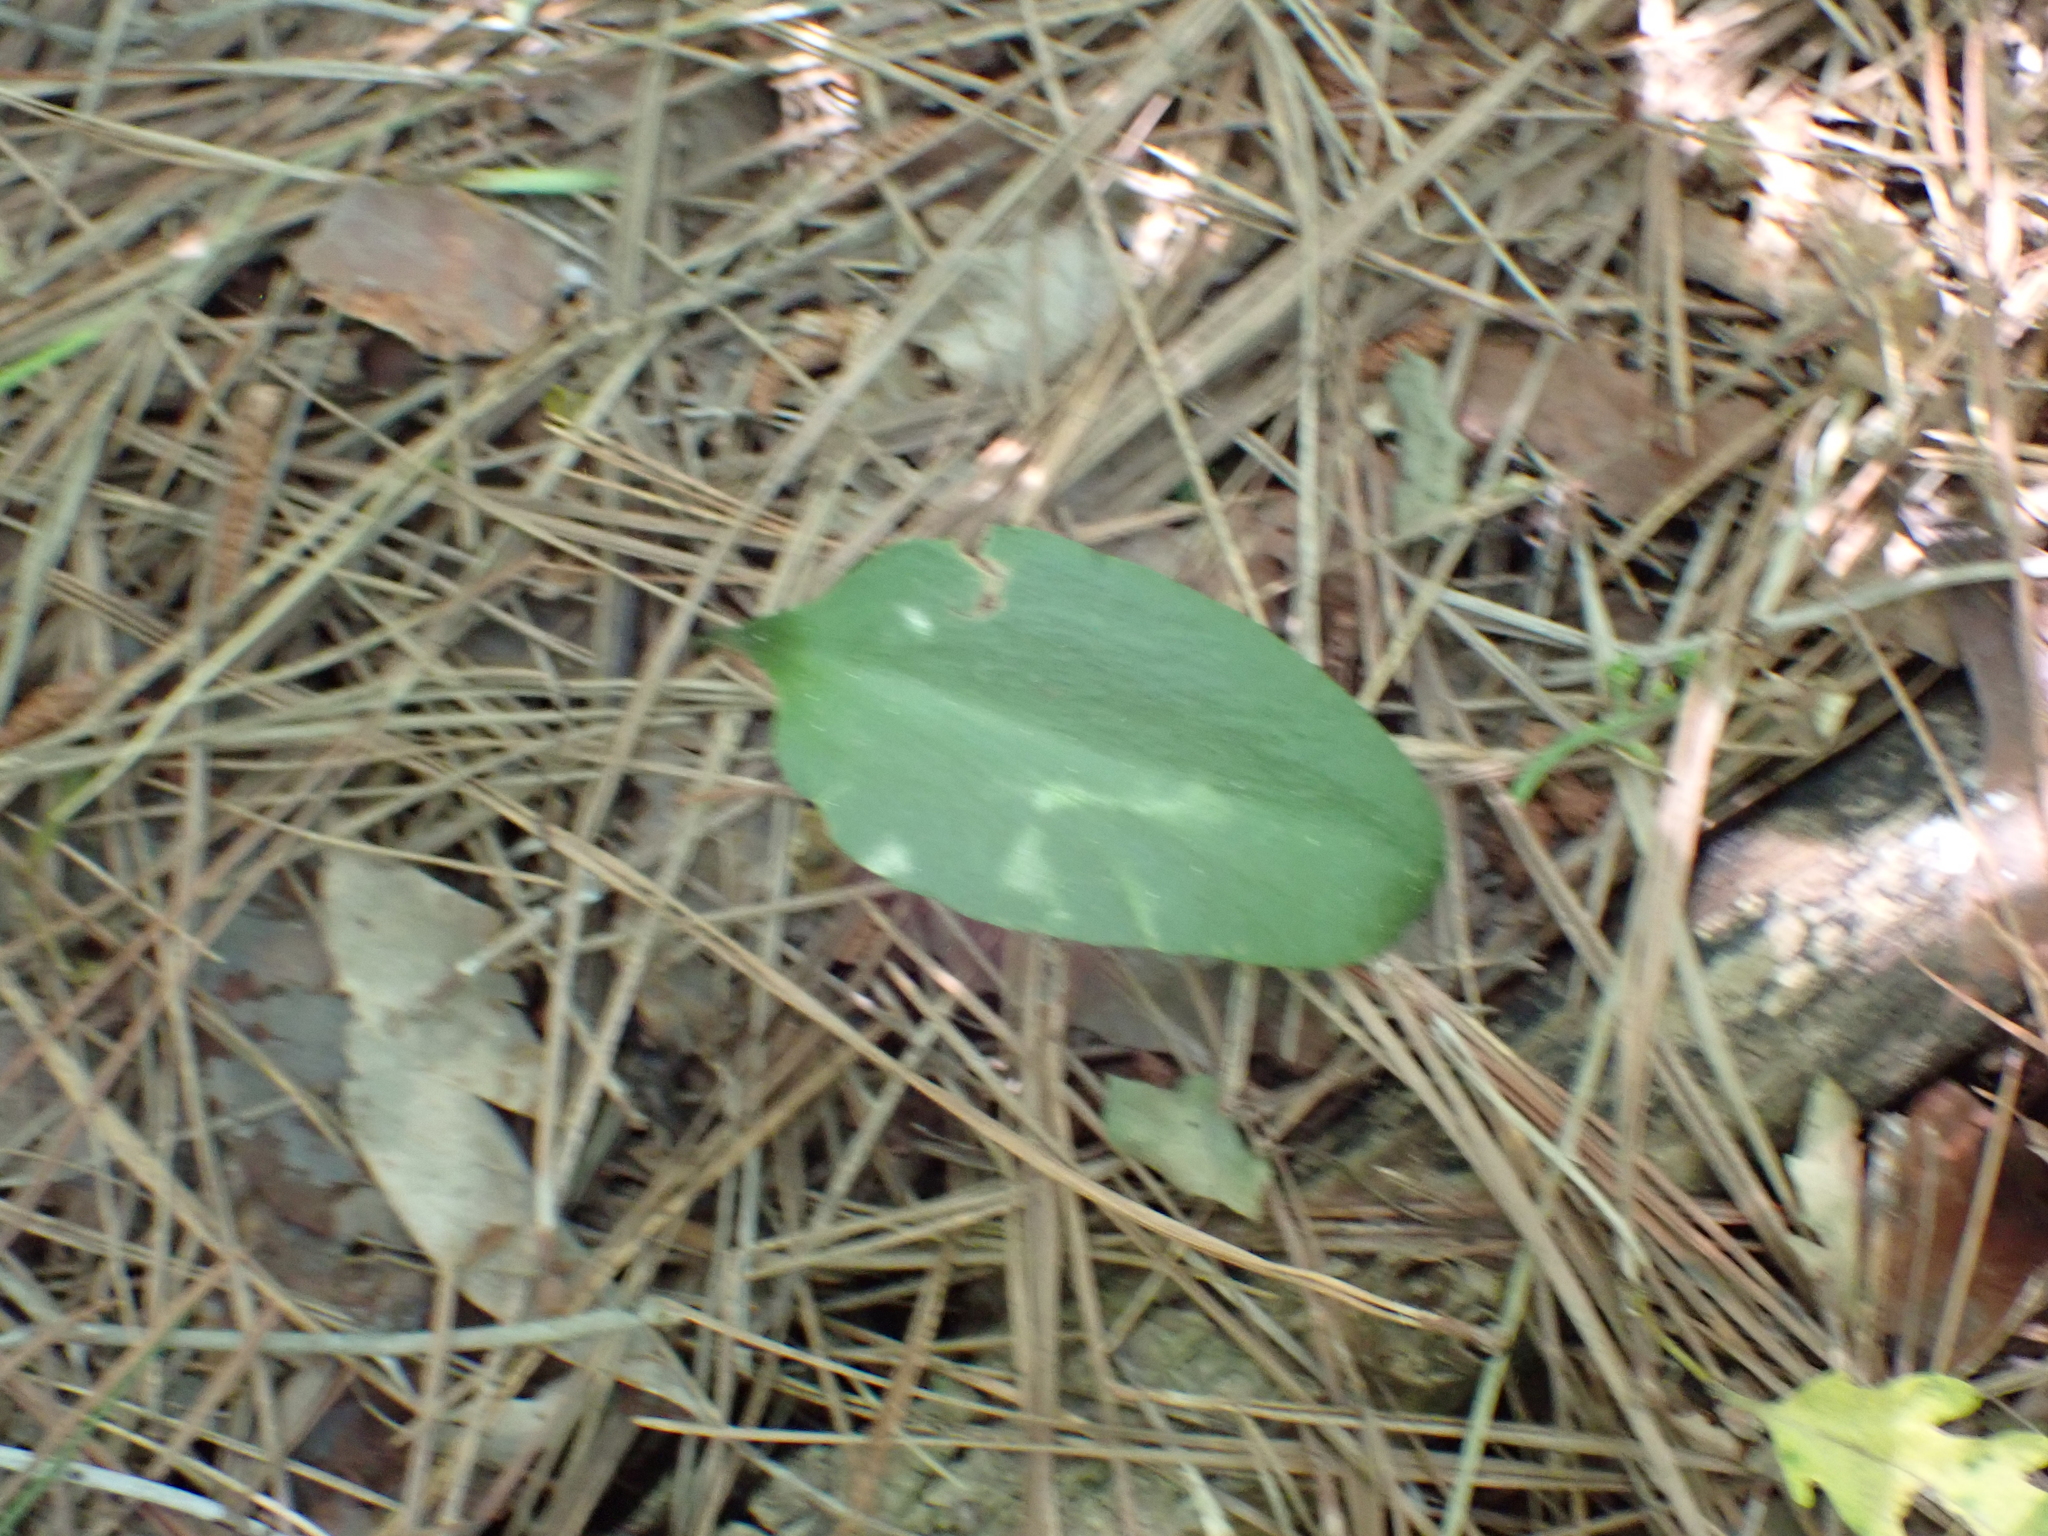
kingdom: Plantae
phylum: Tracheophyta
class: Polypodiopsida
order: Ophioglossales
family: Ophioglossaceae
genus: Ophioglossum
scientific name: Ophioglossum vulgatum
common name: Adder's-tongue
